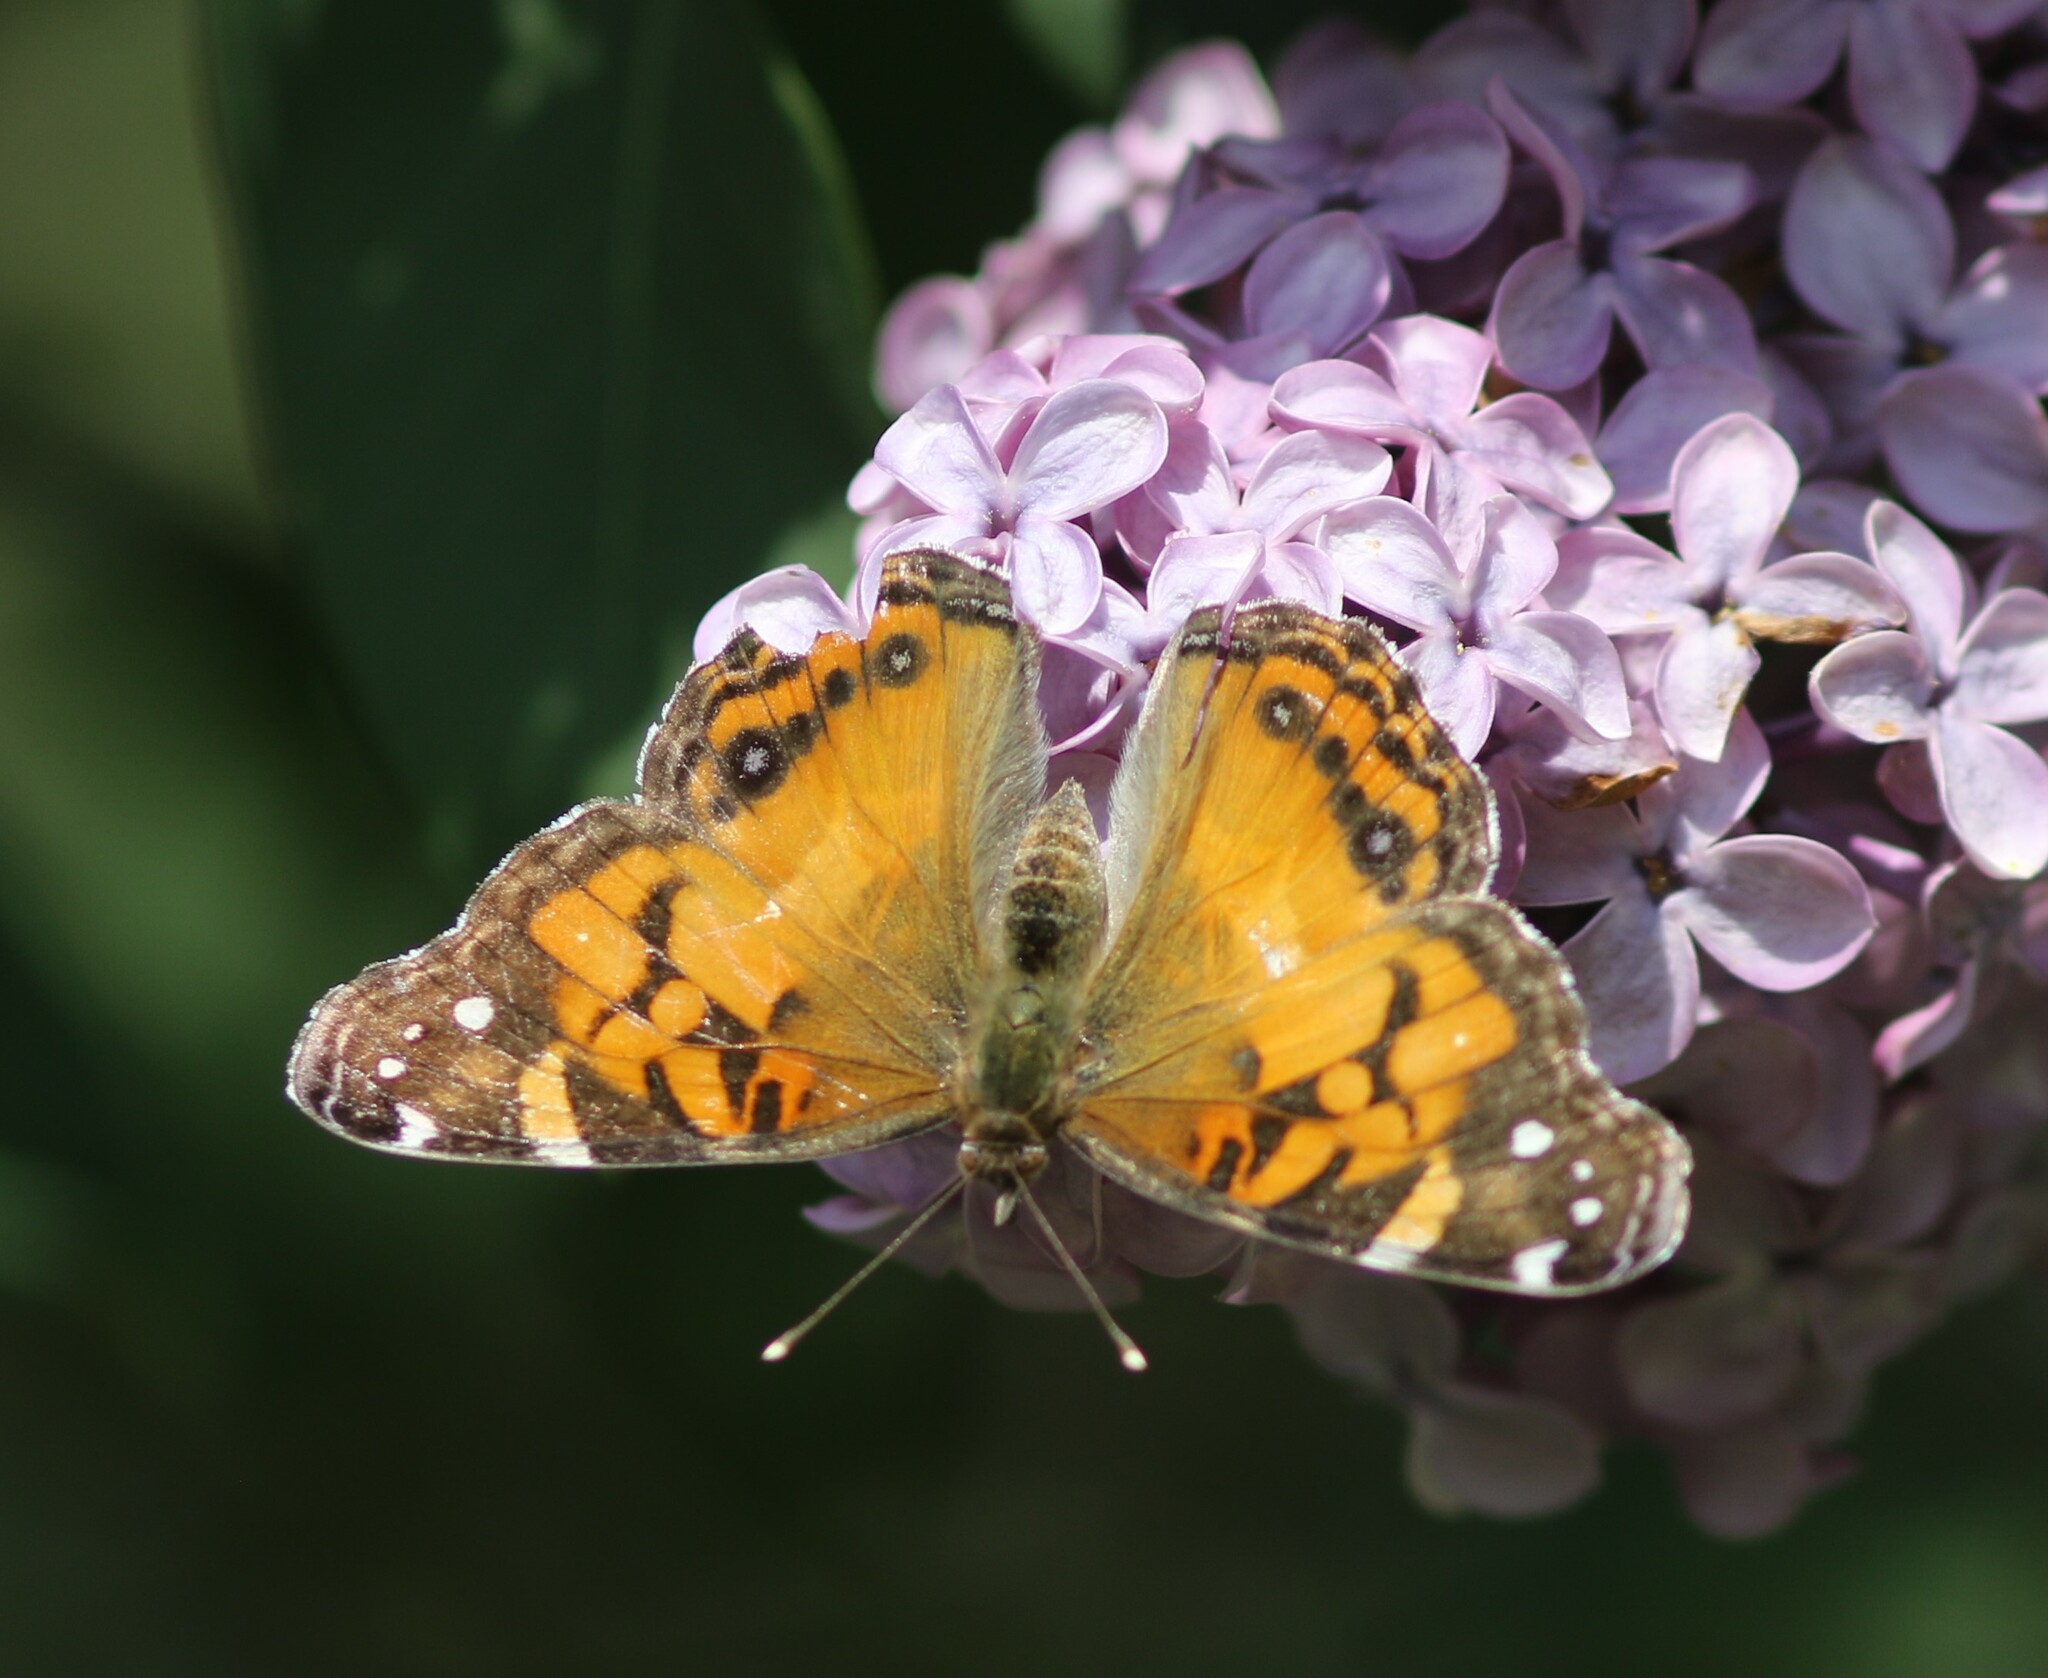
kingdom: Animalia
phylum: Arthropoda
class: Insecta
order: Lepidoptera
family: Nymphalidae
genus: Vanessa
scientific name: Vanessa virginiensis
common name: American lady
